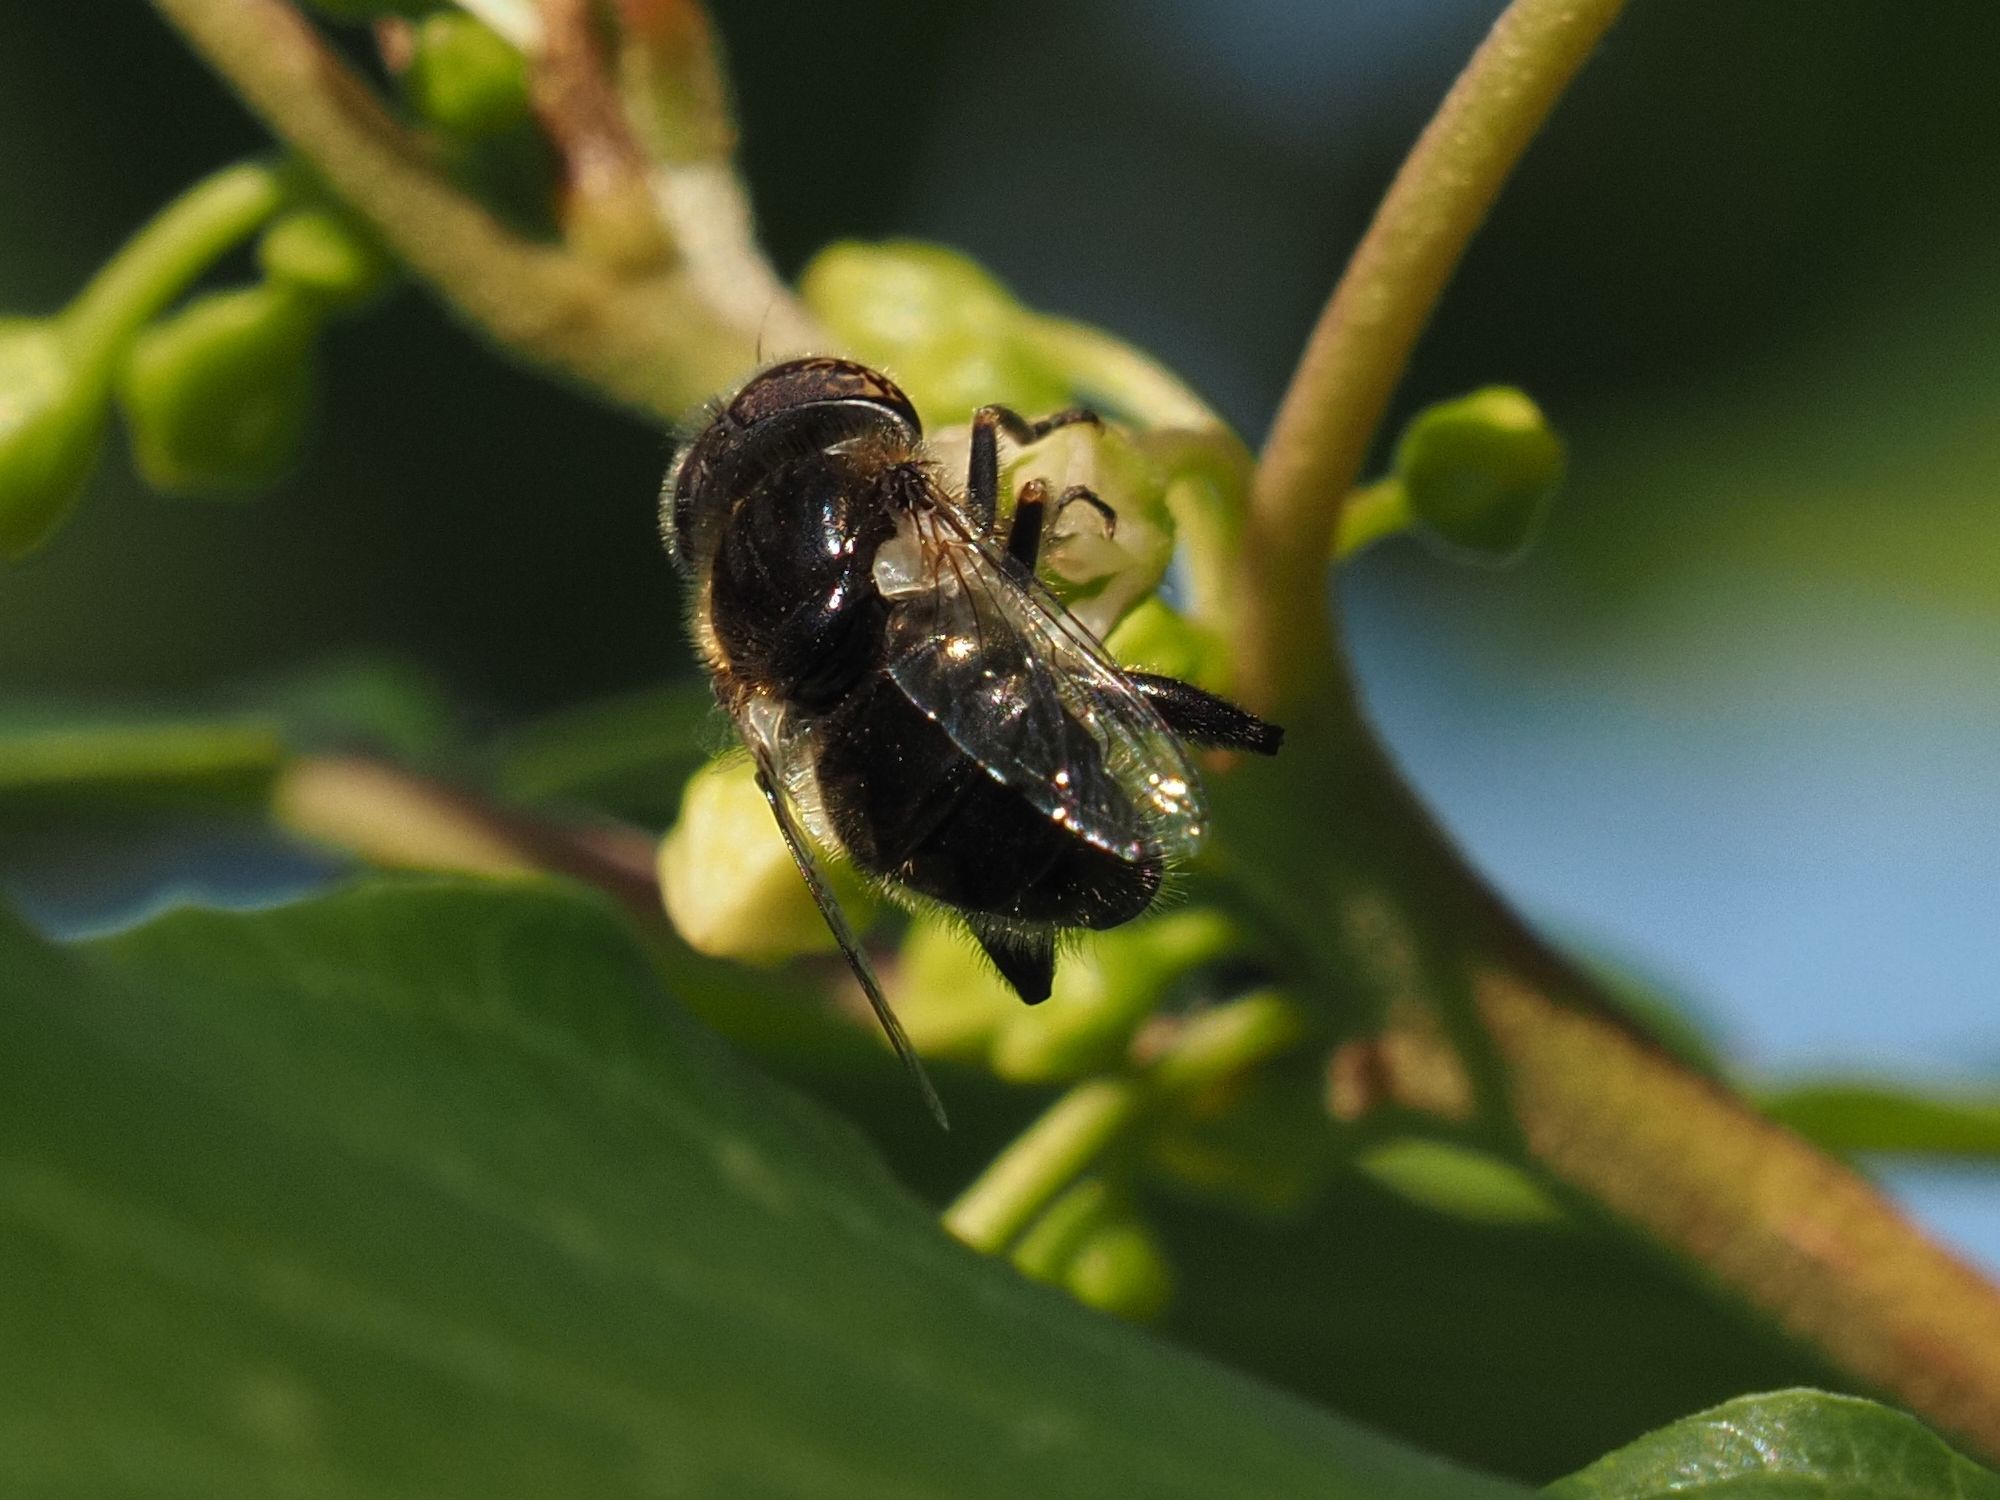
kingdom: Animalia
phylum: Arthropoda
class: Insecta
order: Diptera
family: Syrphidae
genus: Eristalinus
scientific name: Eristalinus sepulchralis
